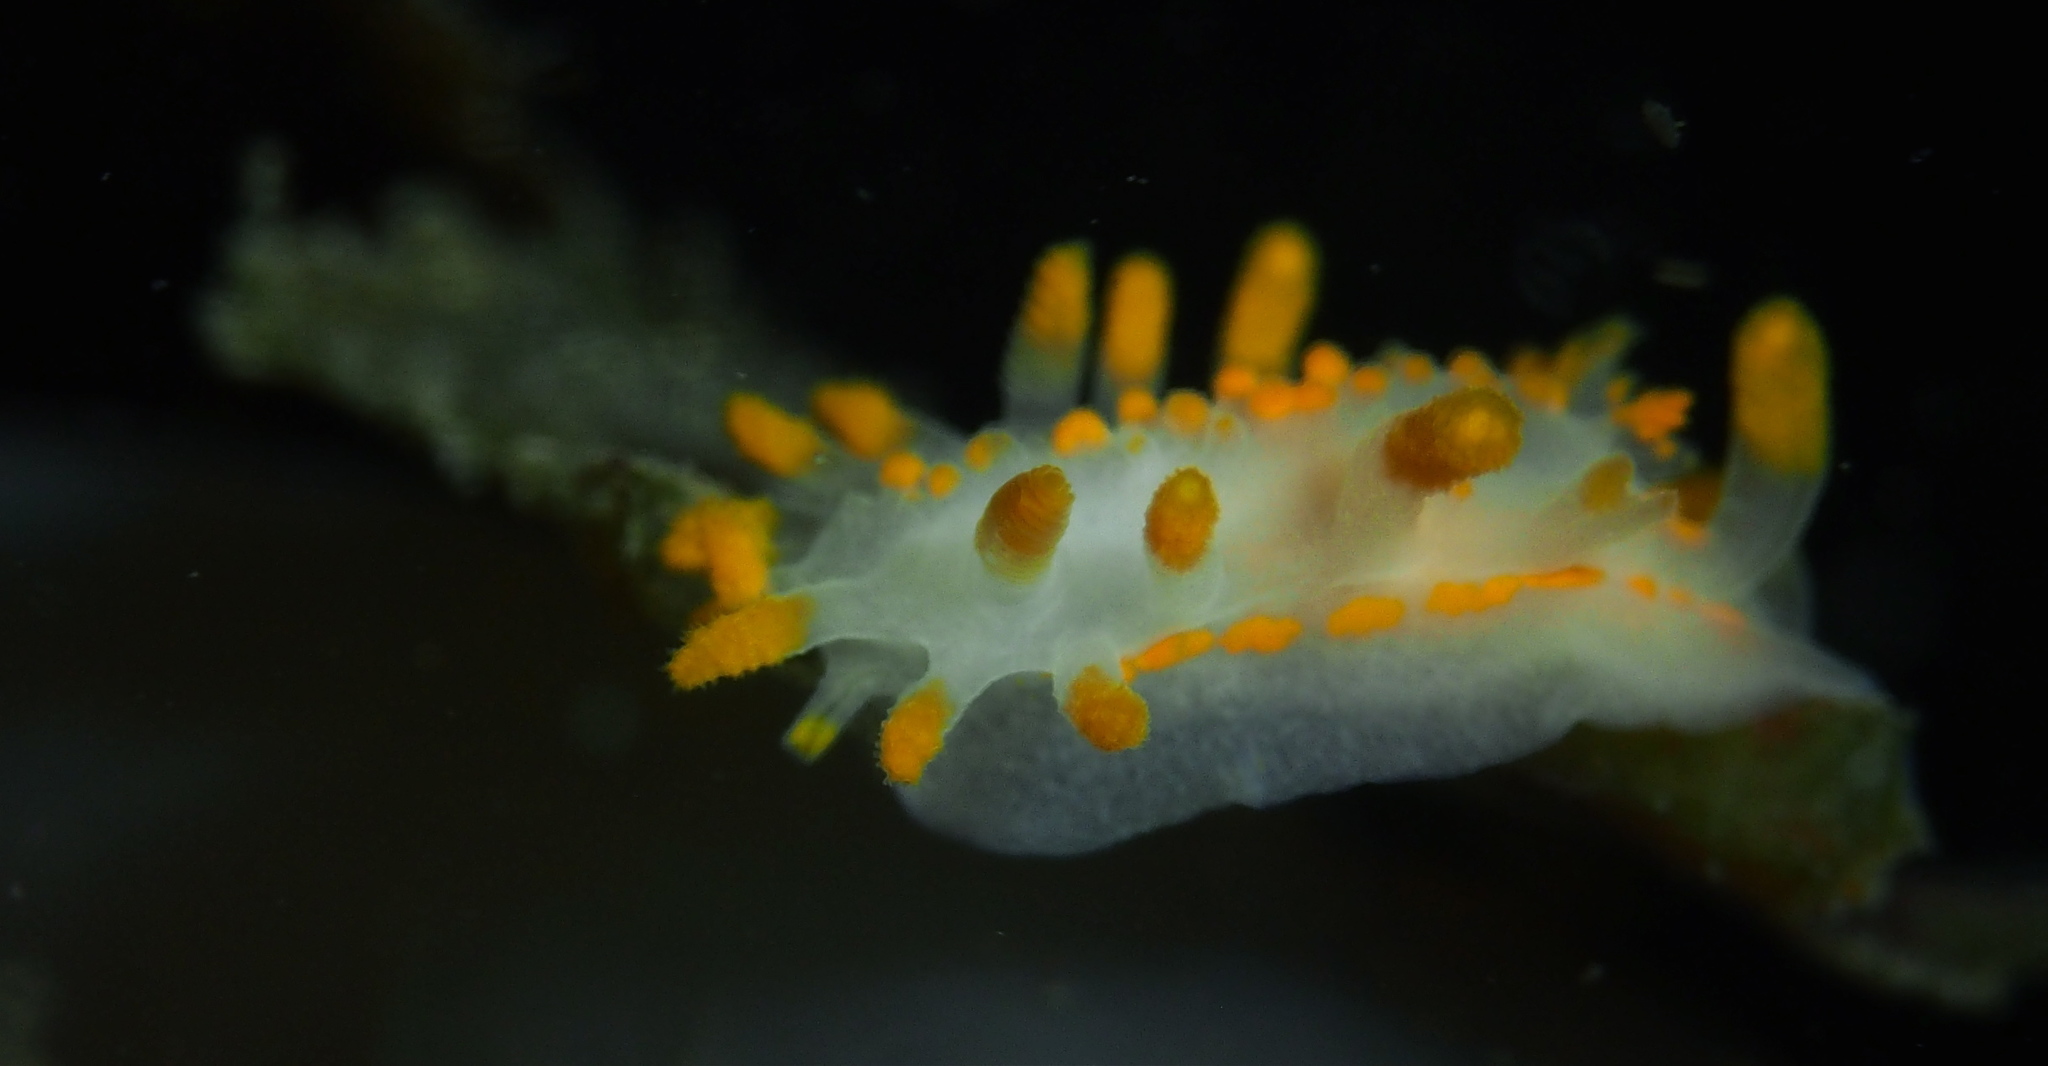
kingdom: Animalia
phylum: Mollusca
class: Gastropoda
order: Nudibranchia
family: Polyceridae
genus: Limacia
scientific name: Limacia clavigera
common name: Orange-clubbed sea slug
